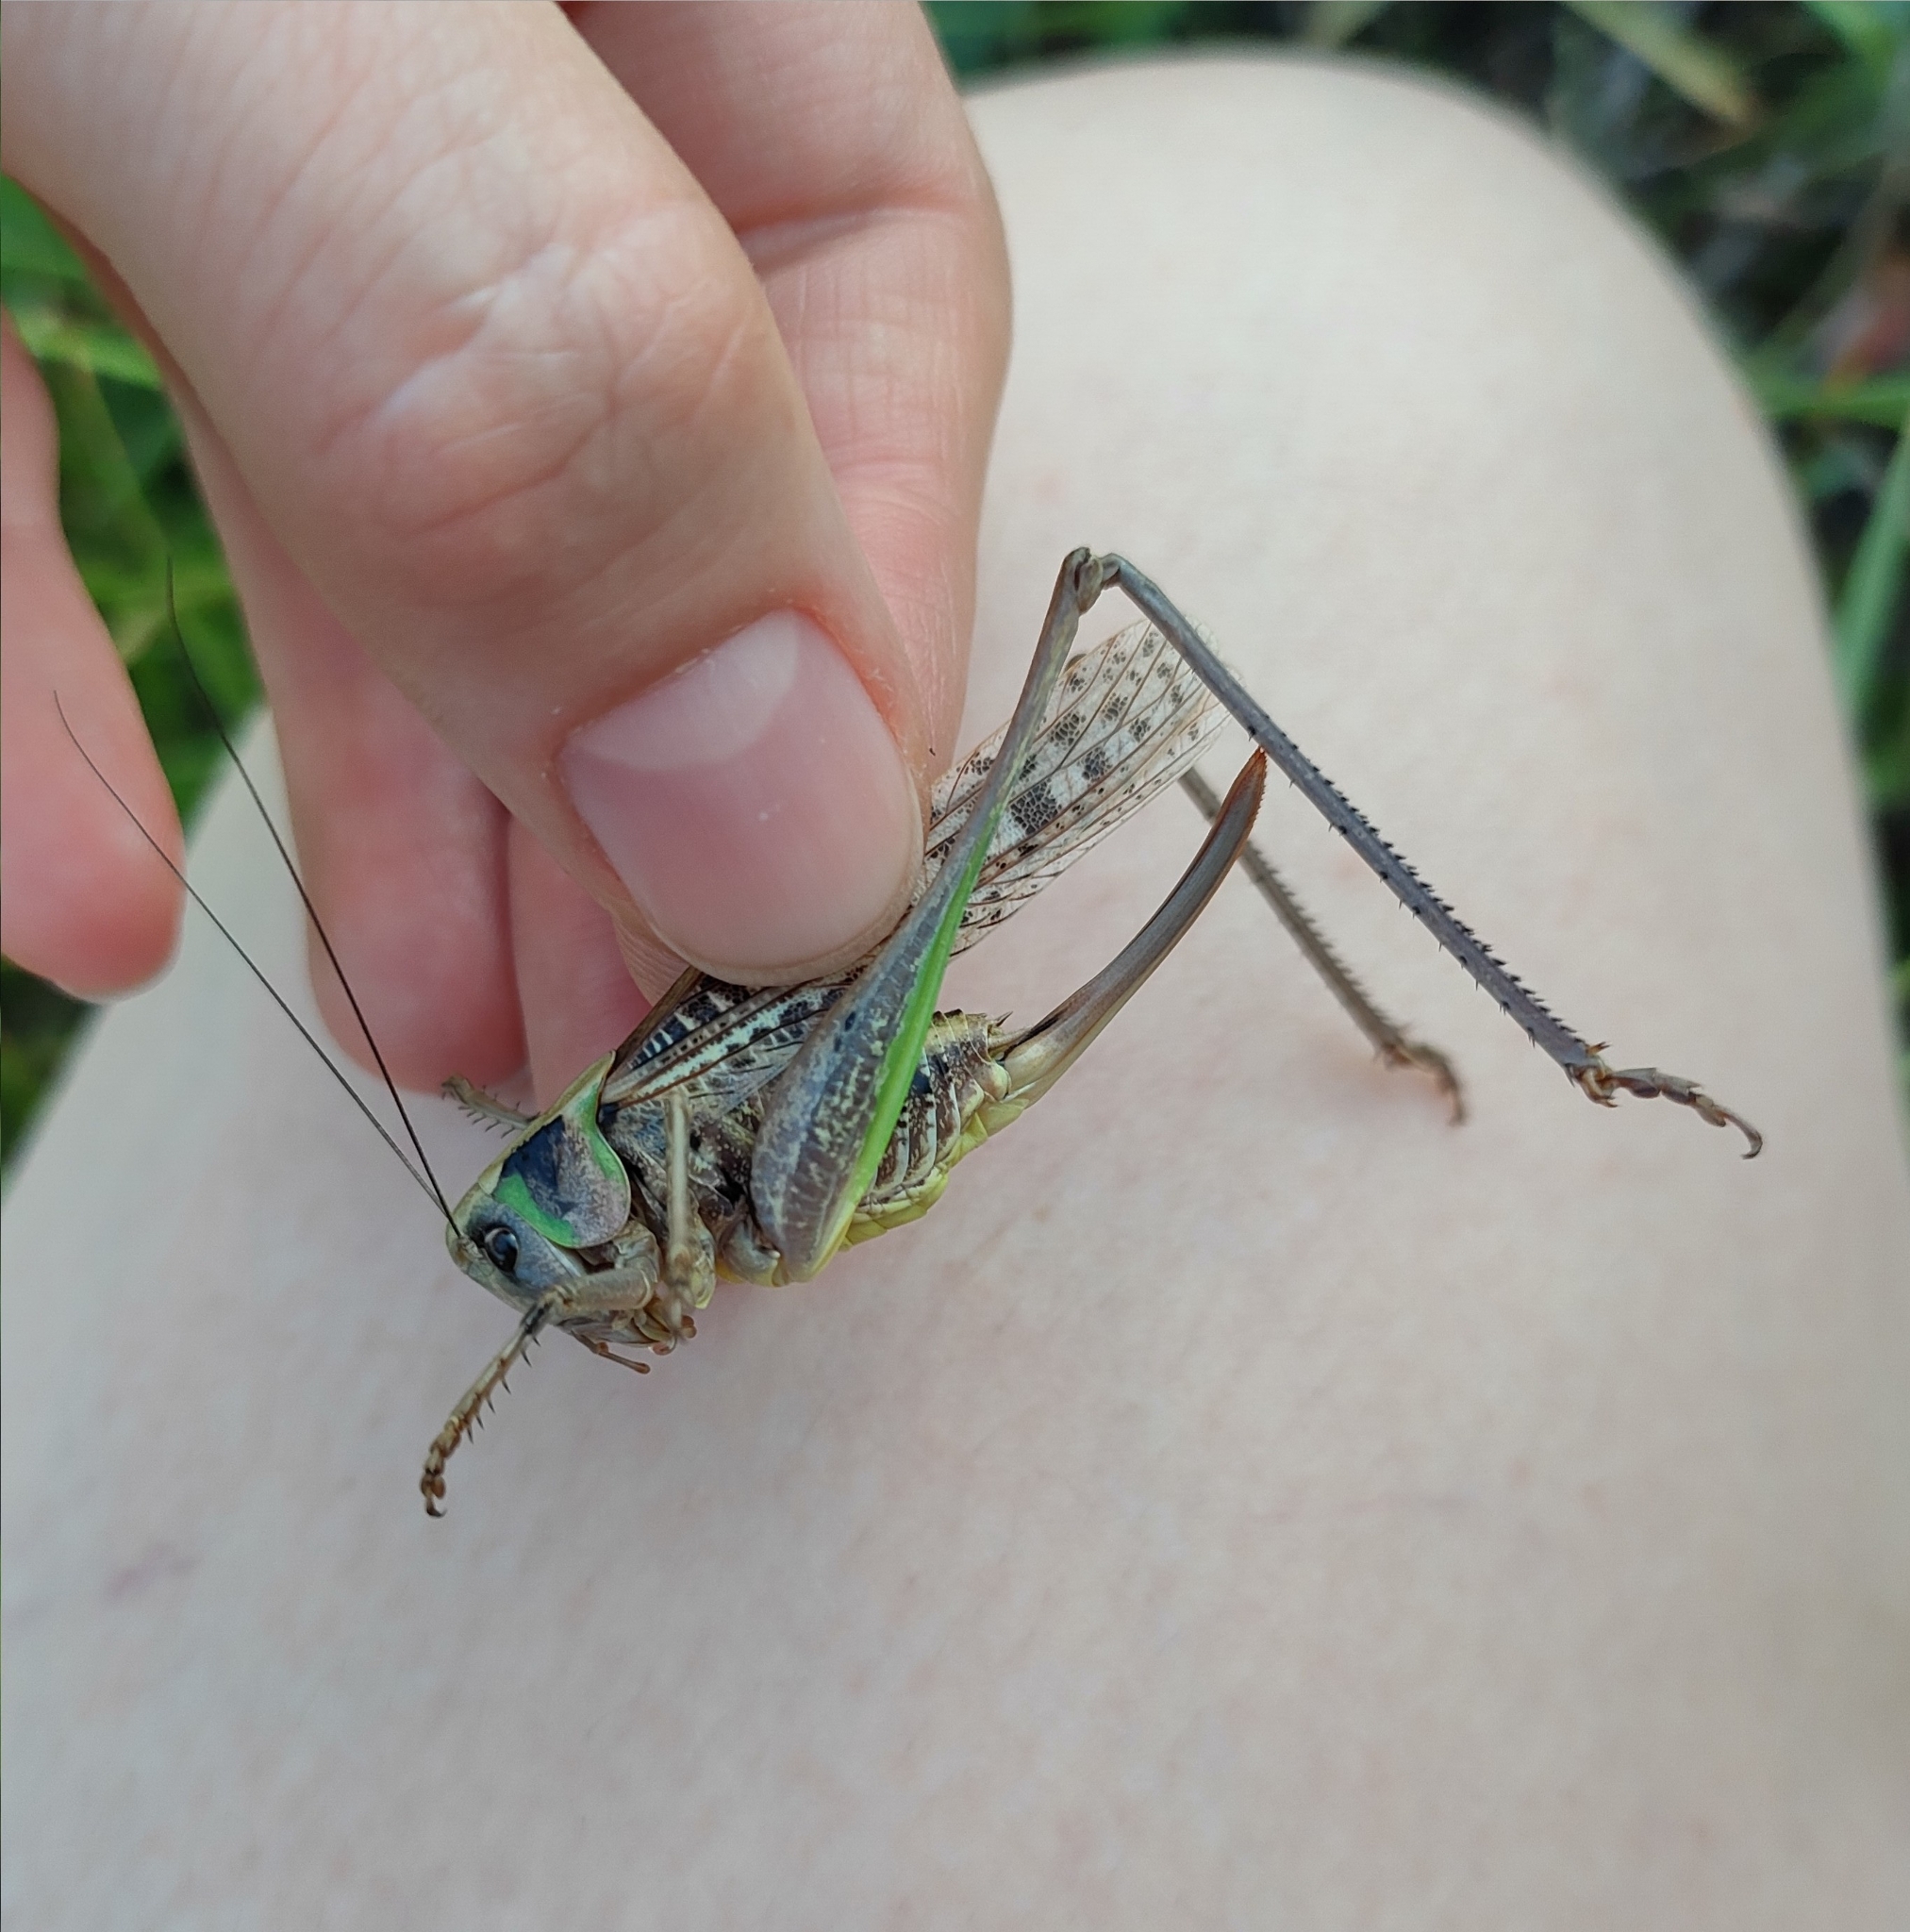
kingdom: Animalia
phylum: Arthropoda
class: Insecta
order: Orthoptera
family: Tettigoniidae
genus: Decticus
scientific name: Decticus verrucivorus
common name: Wart-biter
